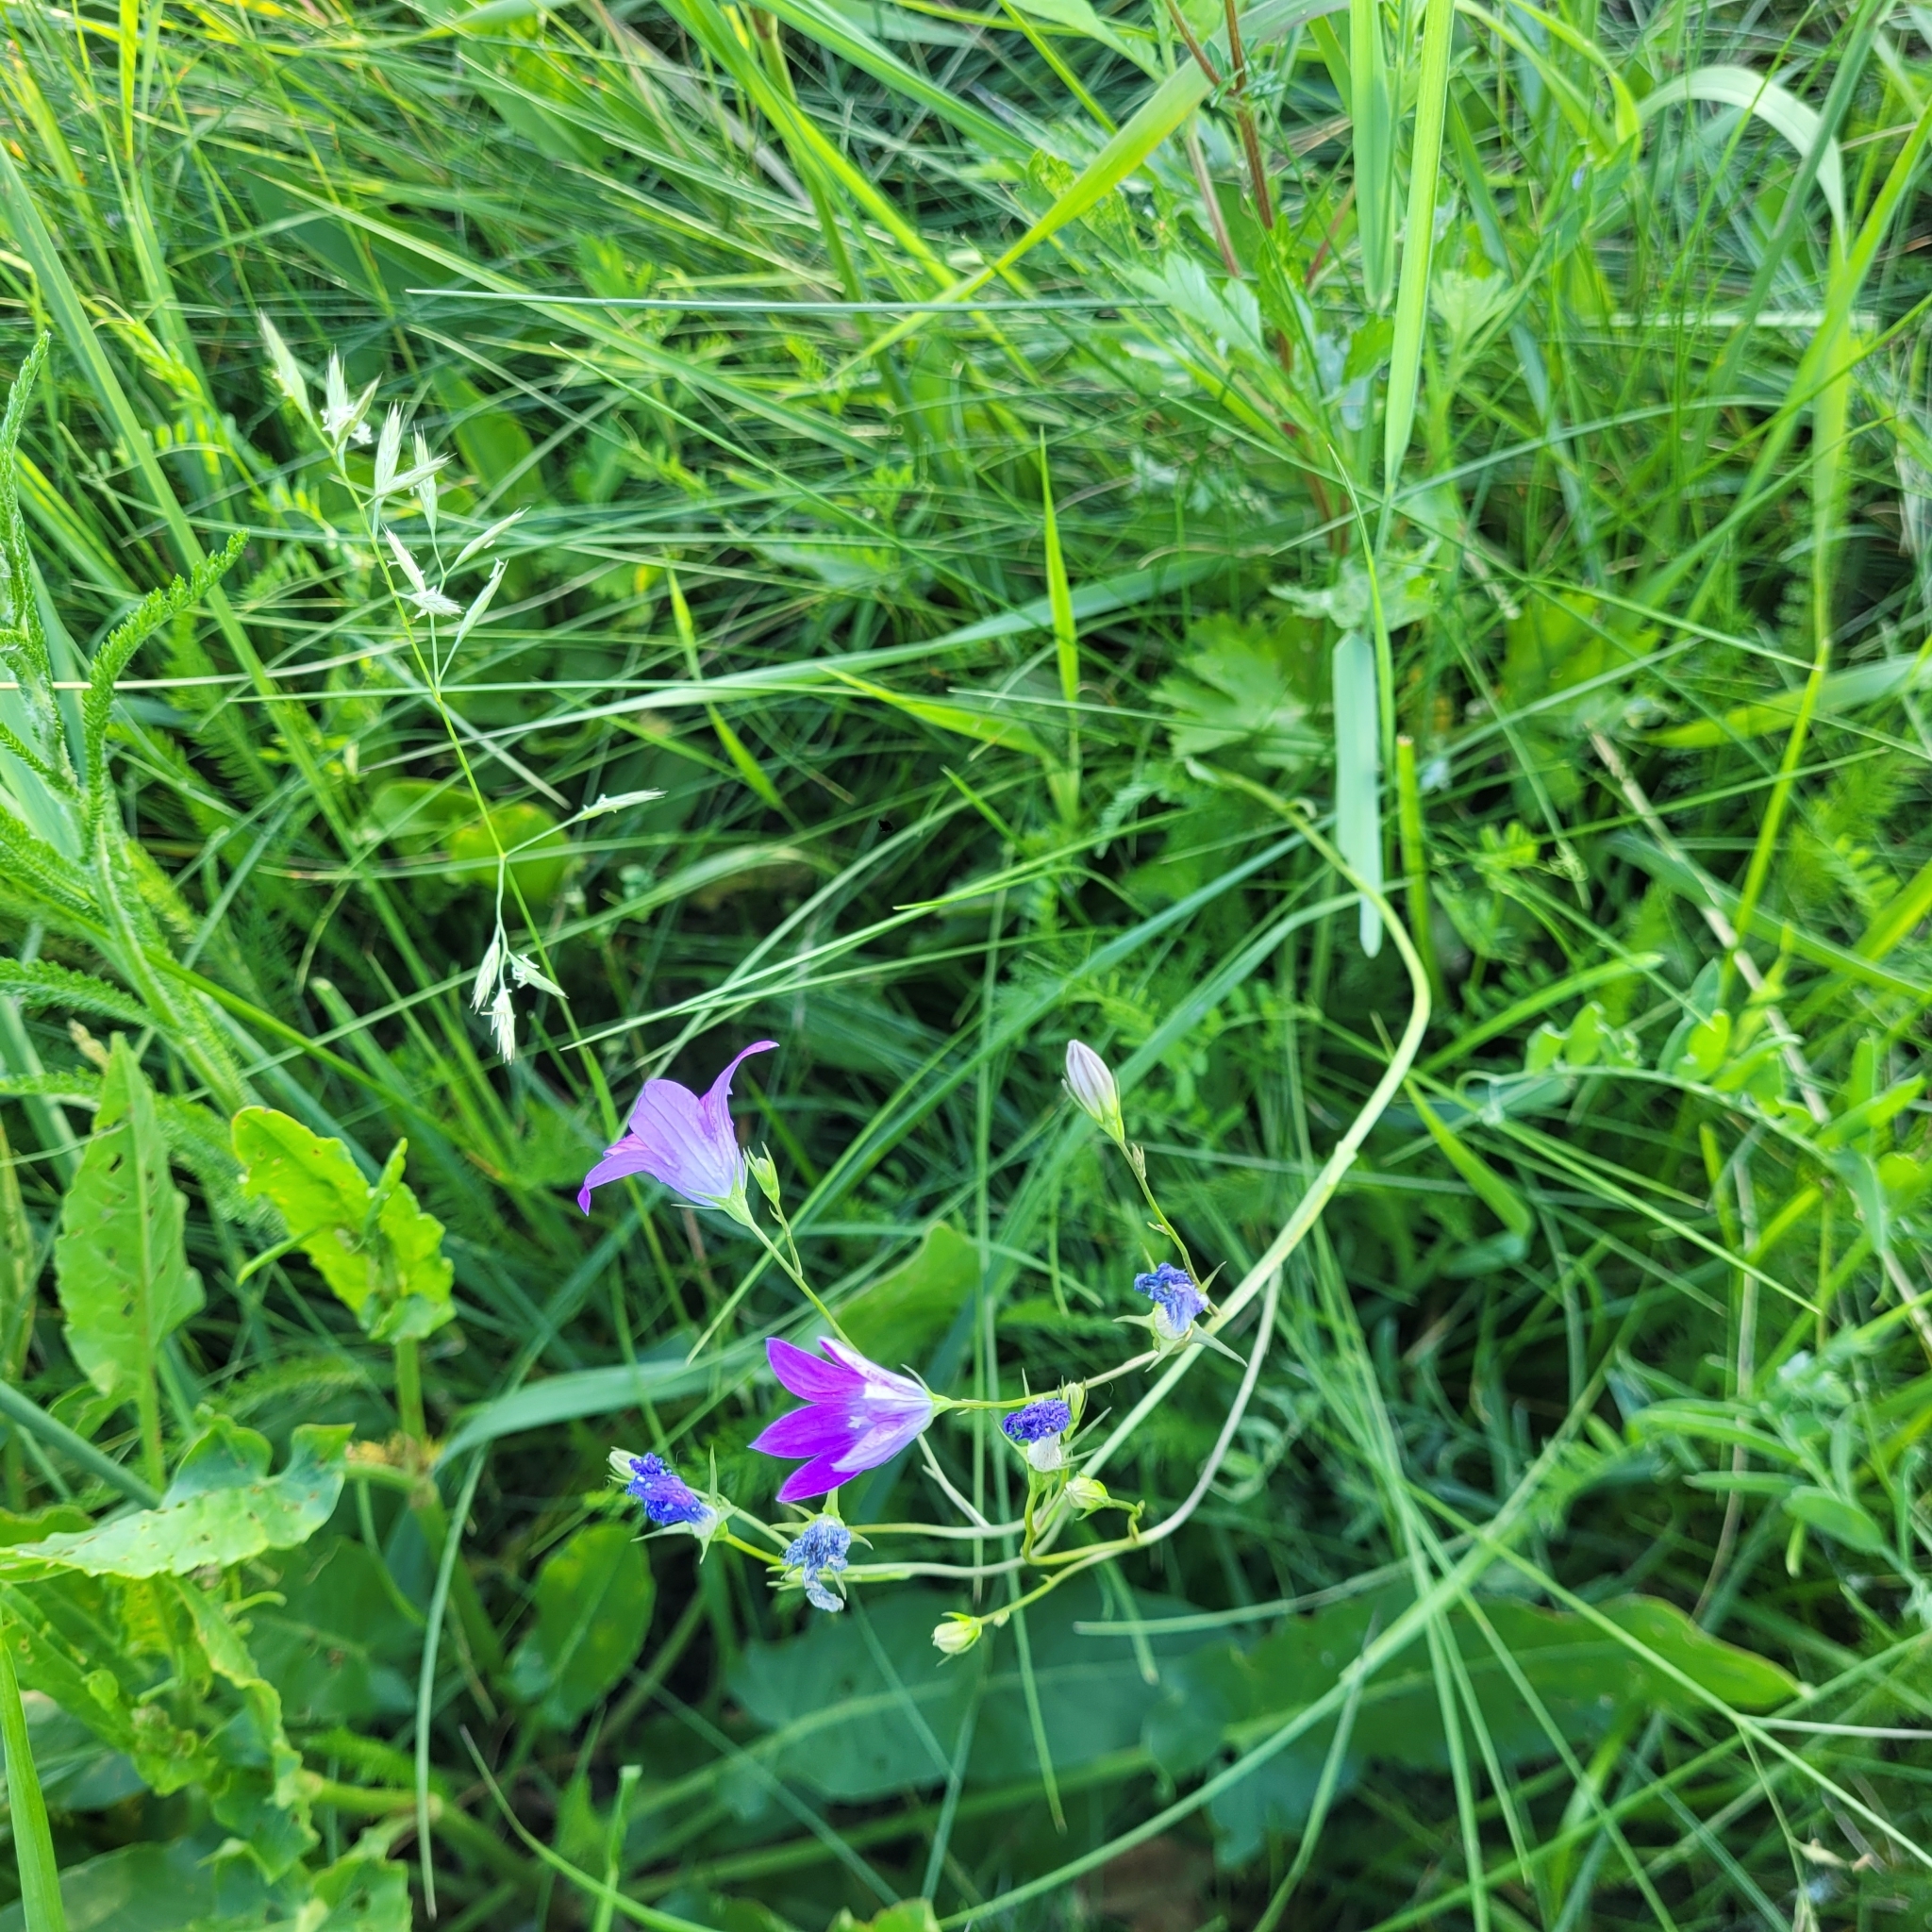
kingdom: Plantae
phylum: Tracheophyta
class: Magnoliopsida
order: Asterales
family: Campanulaceae
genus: Campanula
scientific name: Campanula patula
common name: Spreading bellflower
